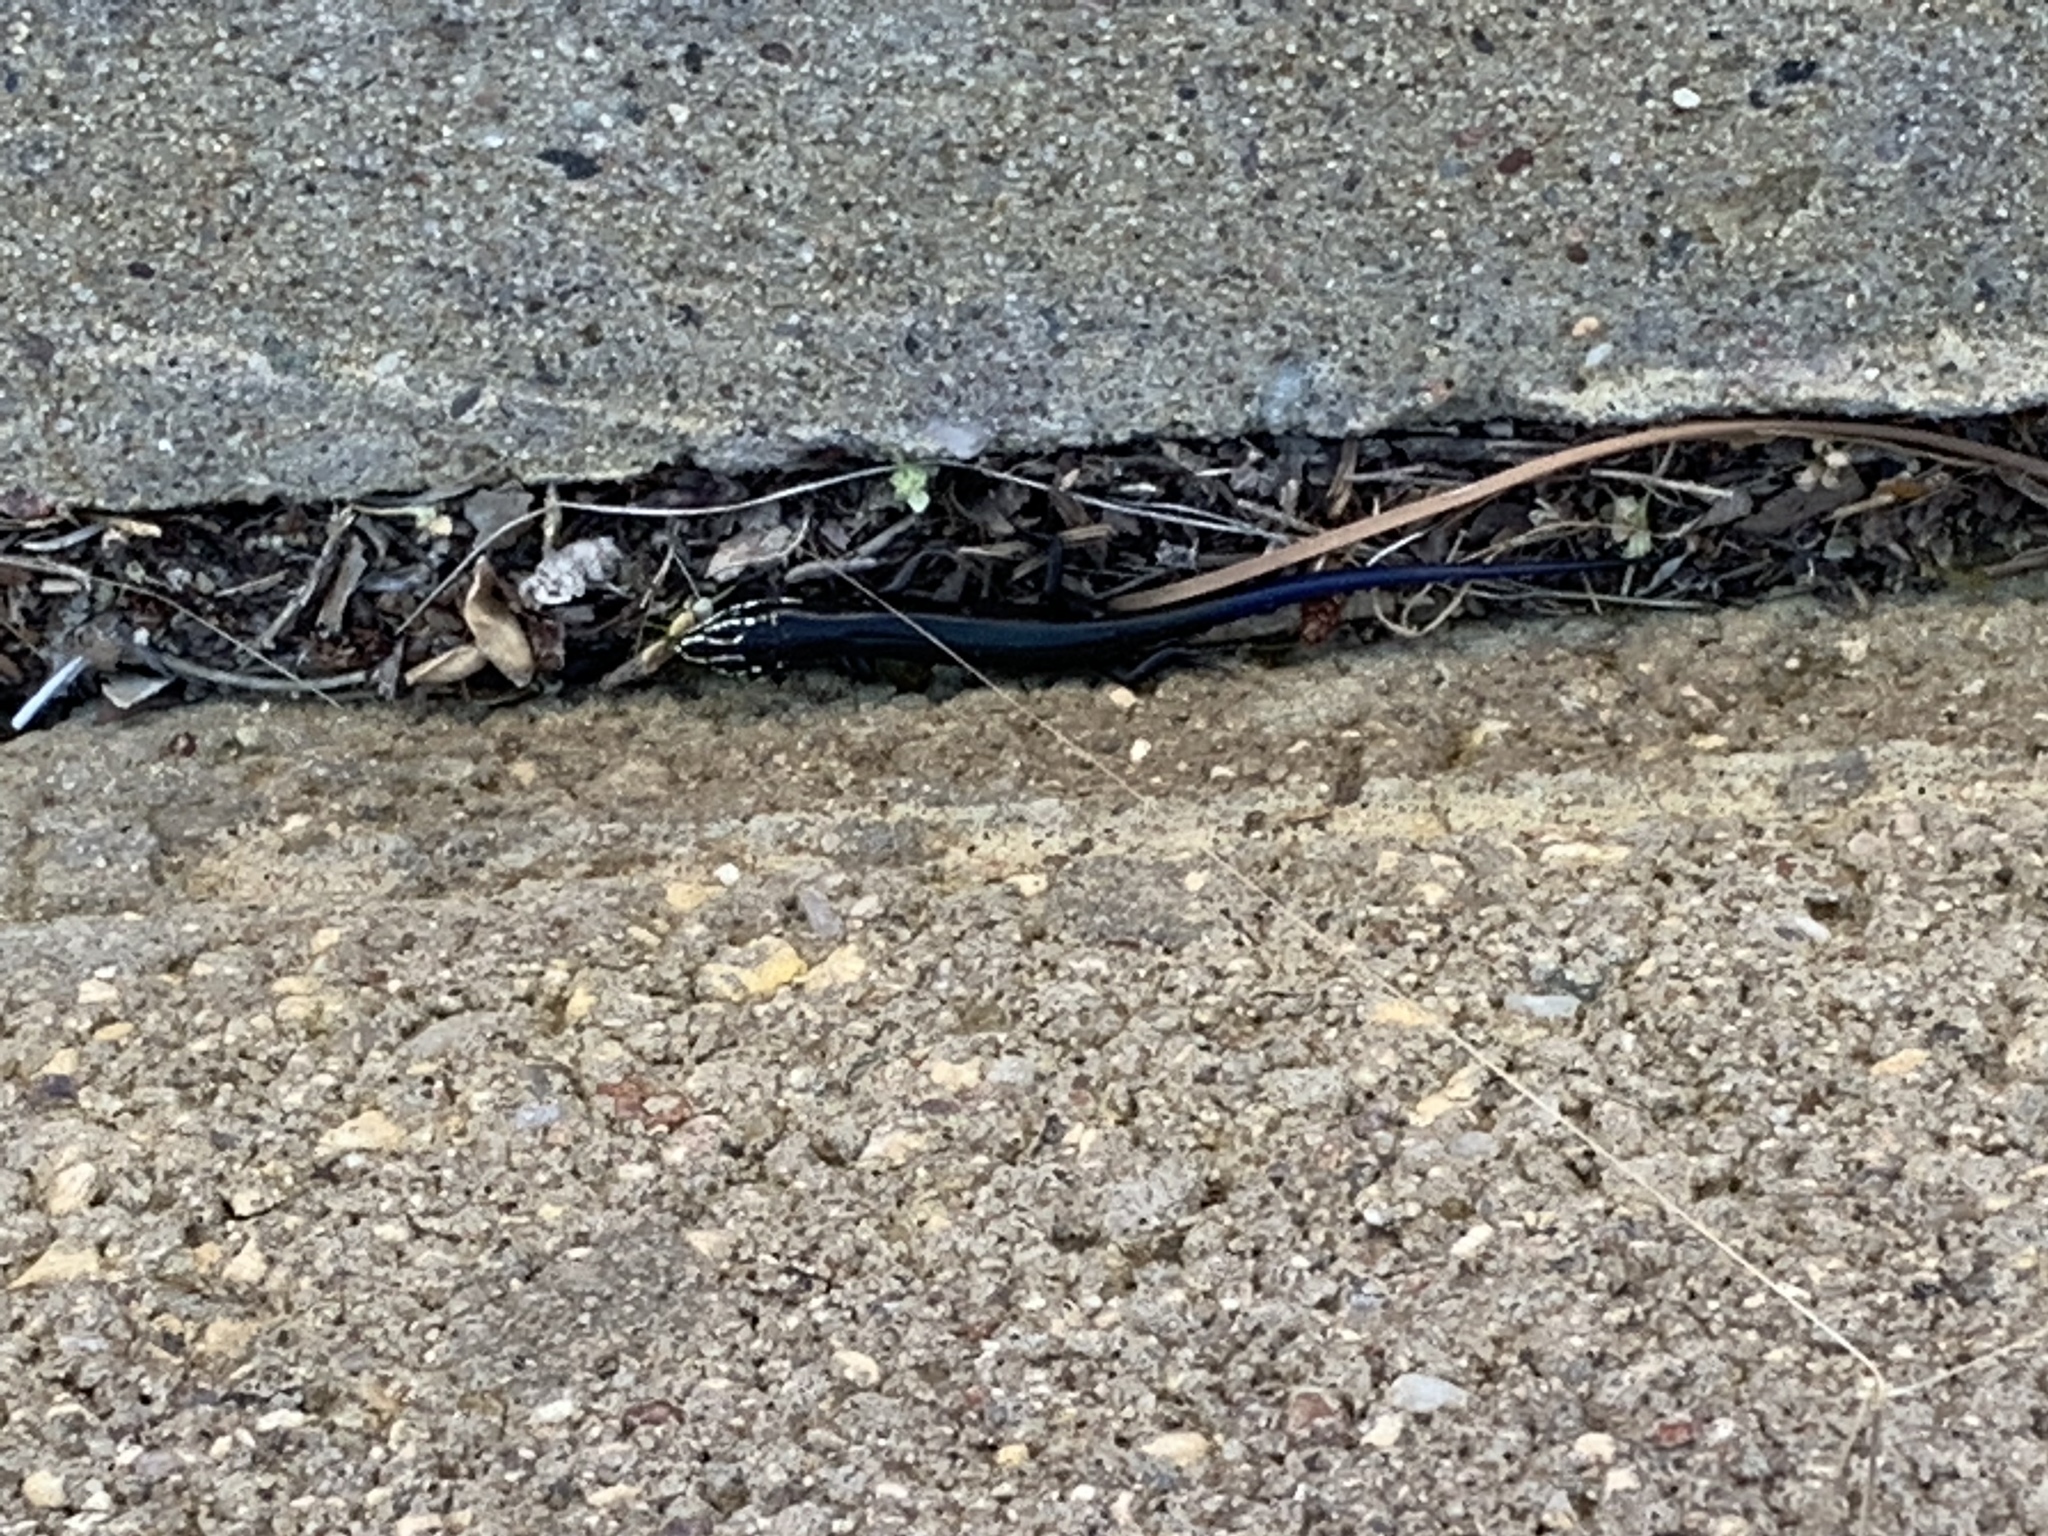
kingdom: Animalia
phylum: Chordata
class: Squamata
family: Scincidae
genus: Plestiodon
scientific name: Plestiodon obsoletus
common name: Great plains skink
